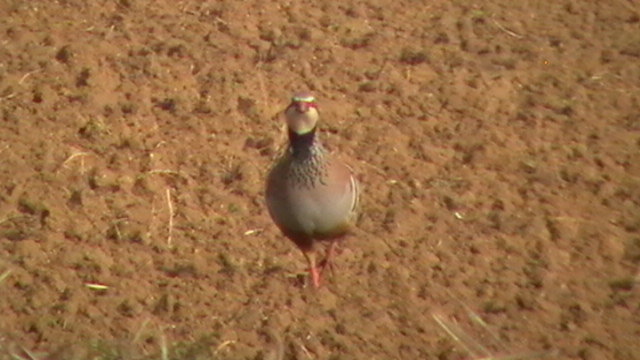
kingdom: Animalia
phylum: Chordata
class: Aves
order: Galliformes
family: Phasianidae
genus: Alectoris
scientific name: Alectoris rufa
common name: Red-legged partridge
